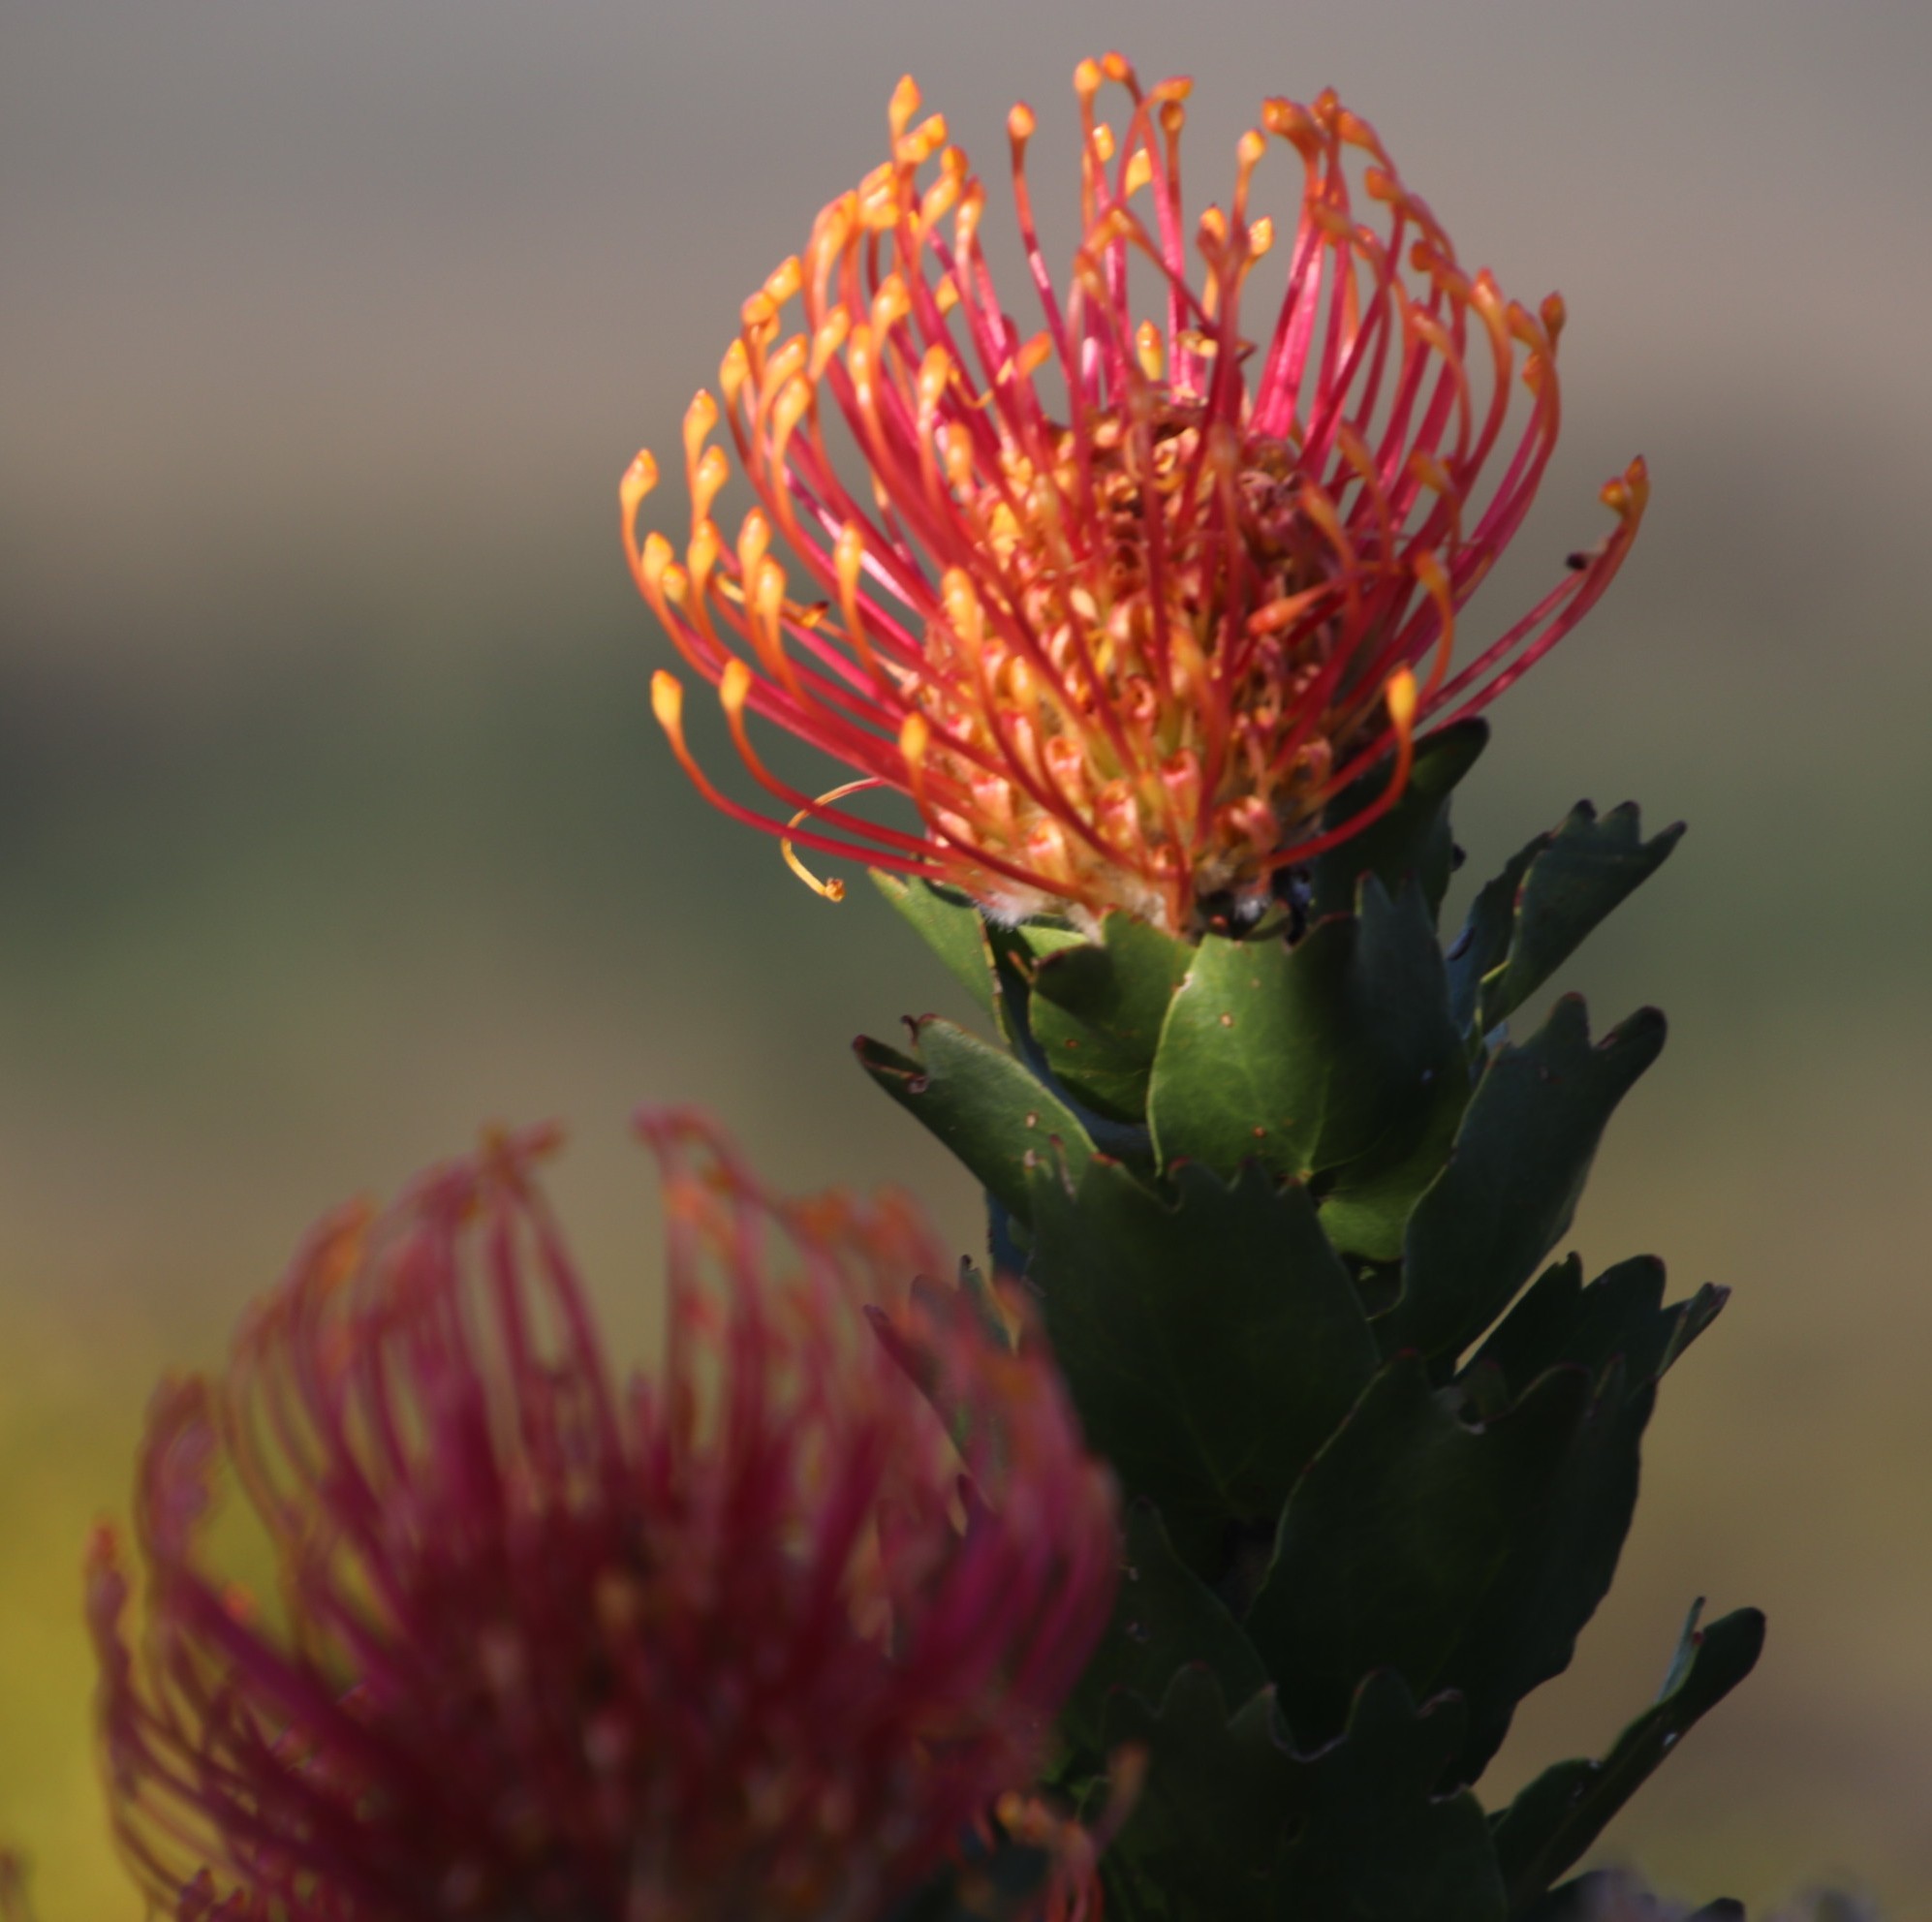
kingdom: Plantae
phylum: Tracheophyta
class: Magnoliopsida
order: Proteales
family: Proteaceae
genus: Leucospermum
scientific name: Leucospermum patersonii
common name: False tree pincushion
